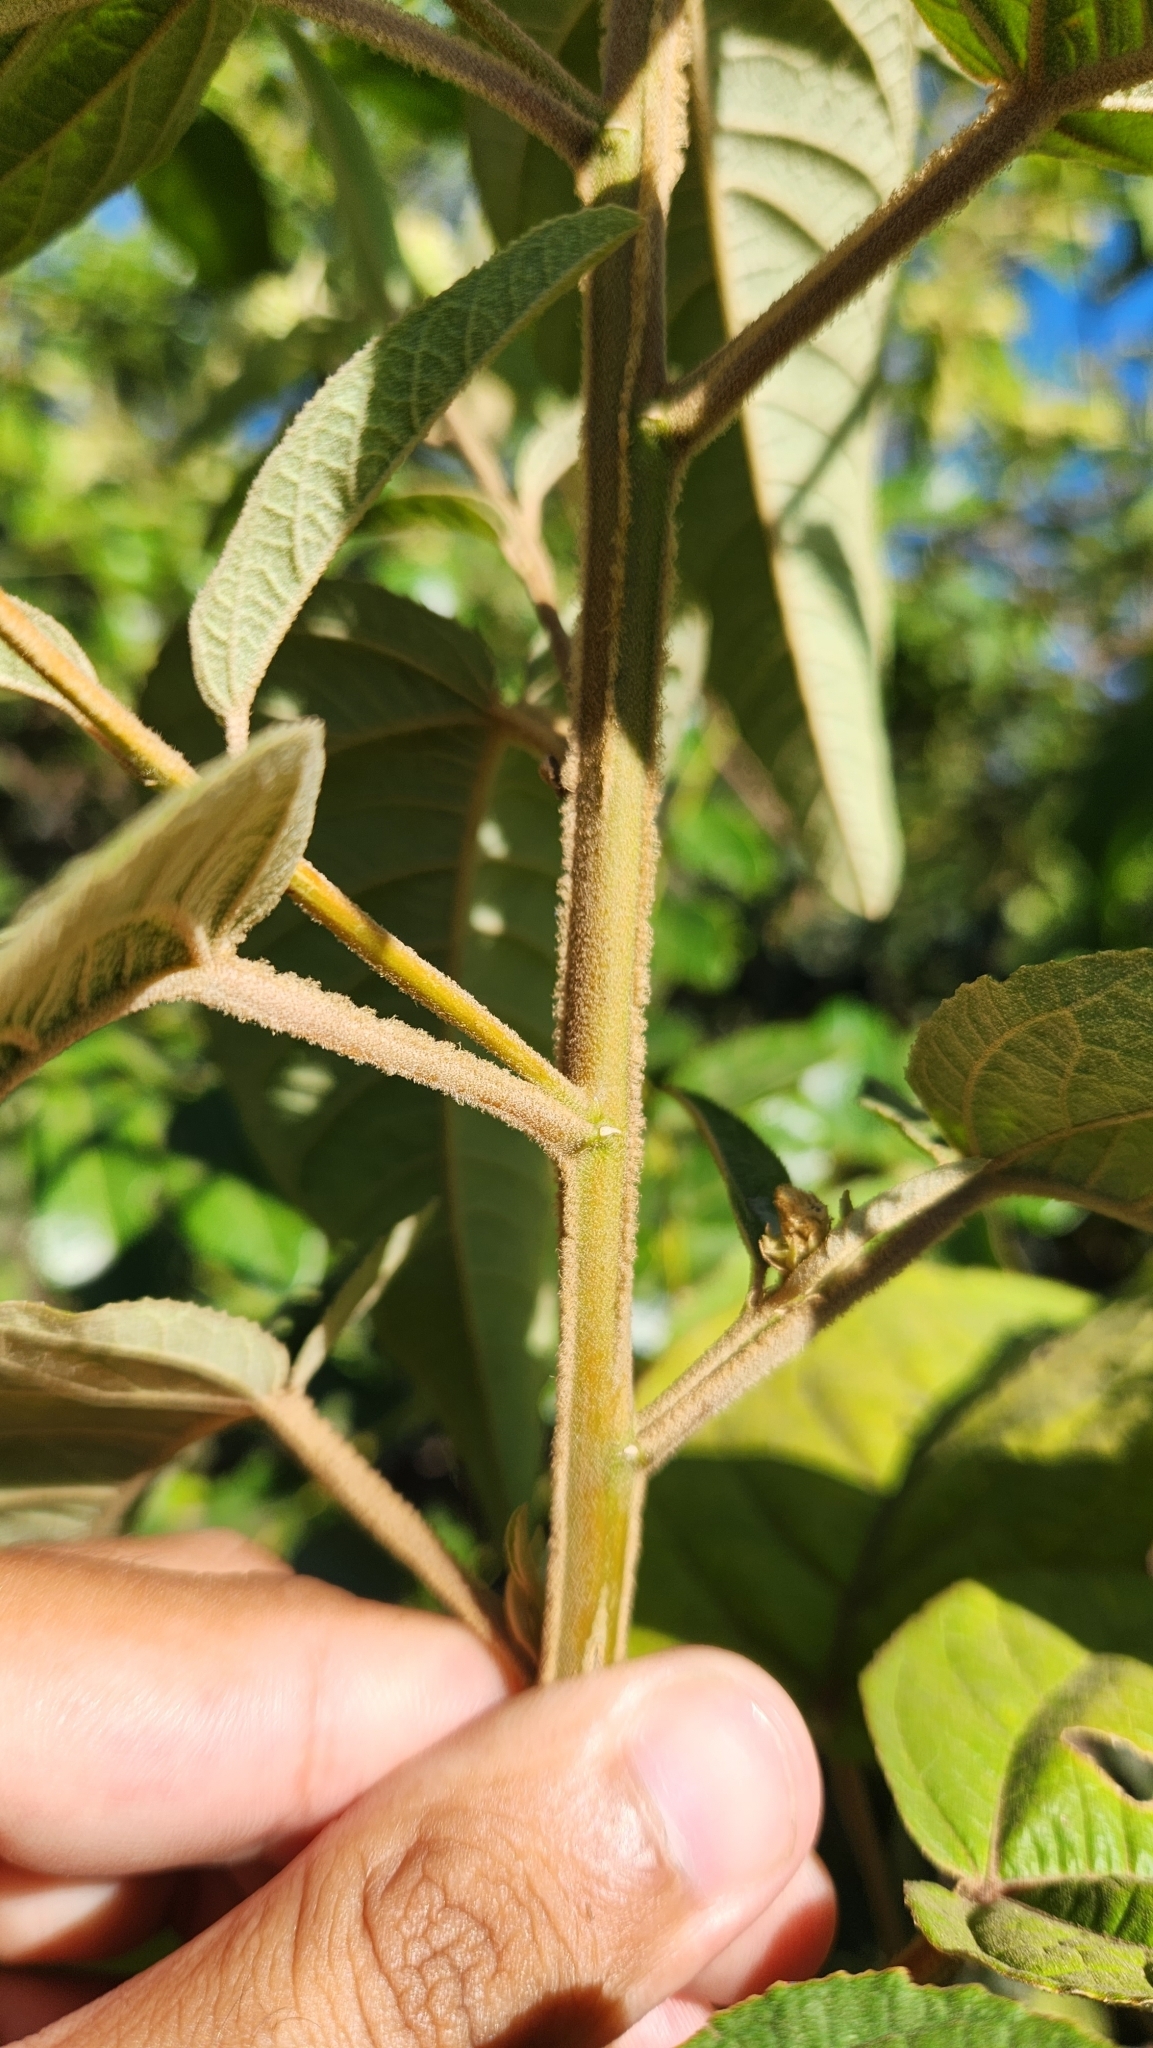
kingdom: Plantae
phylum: Tracheophyta
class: Magnoliopsida
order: Malpighiales
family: Euphorbiaceae
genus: Croton
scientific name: Croton triqueter
